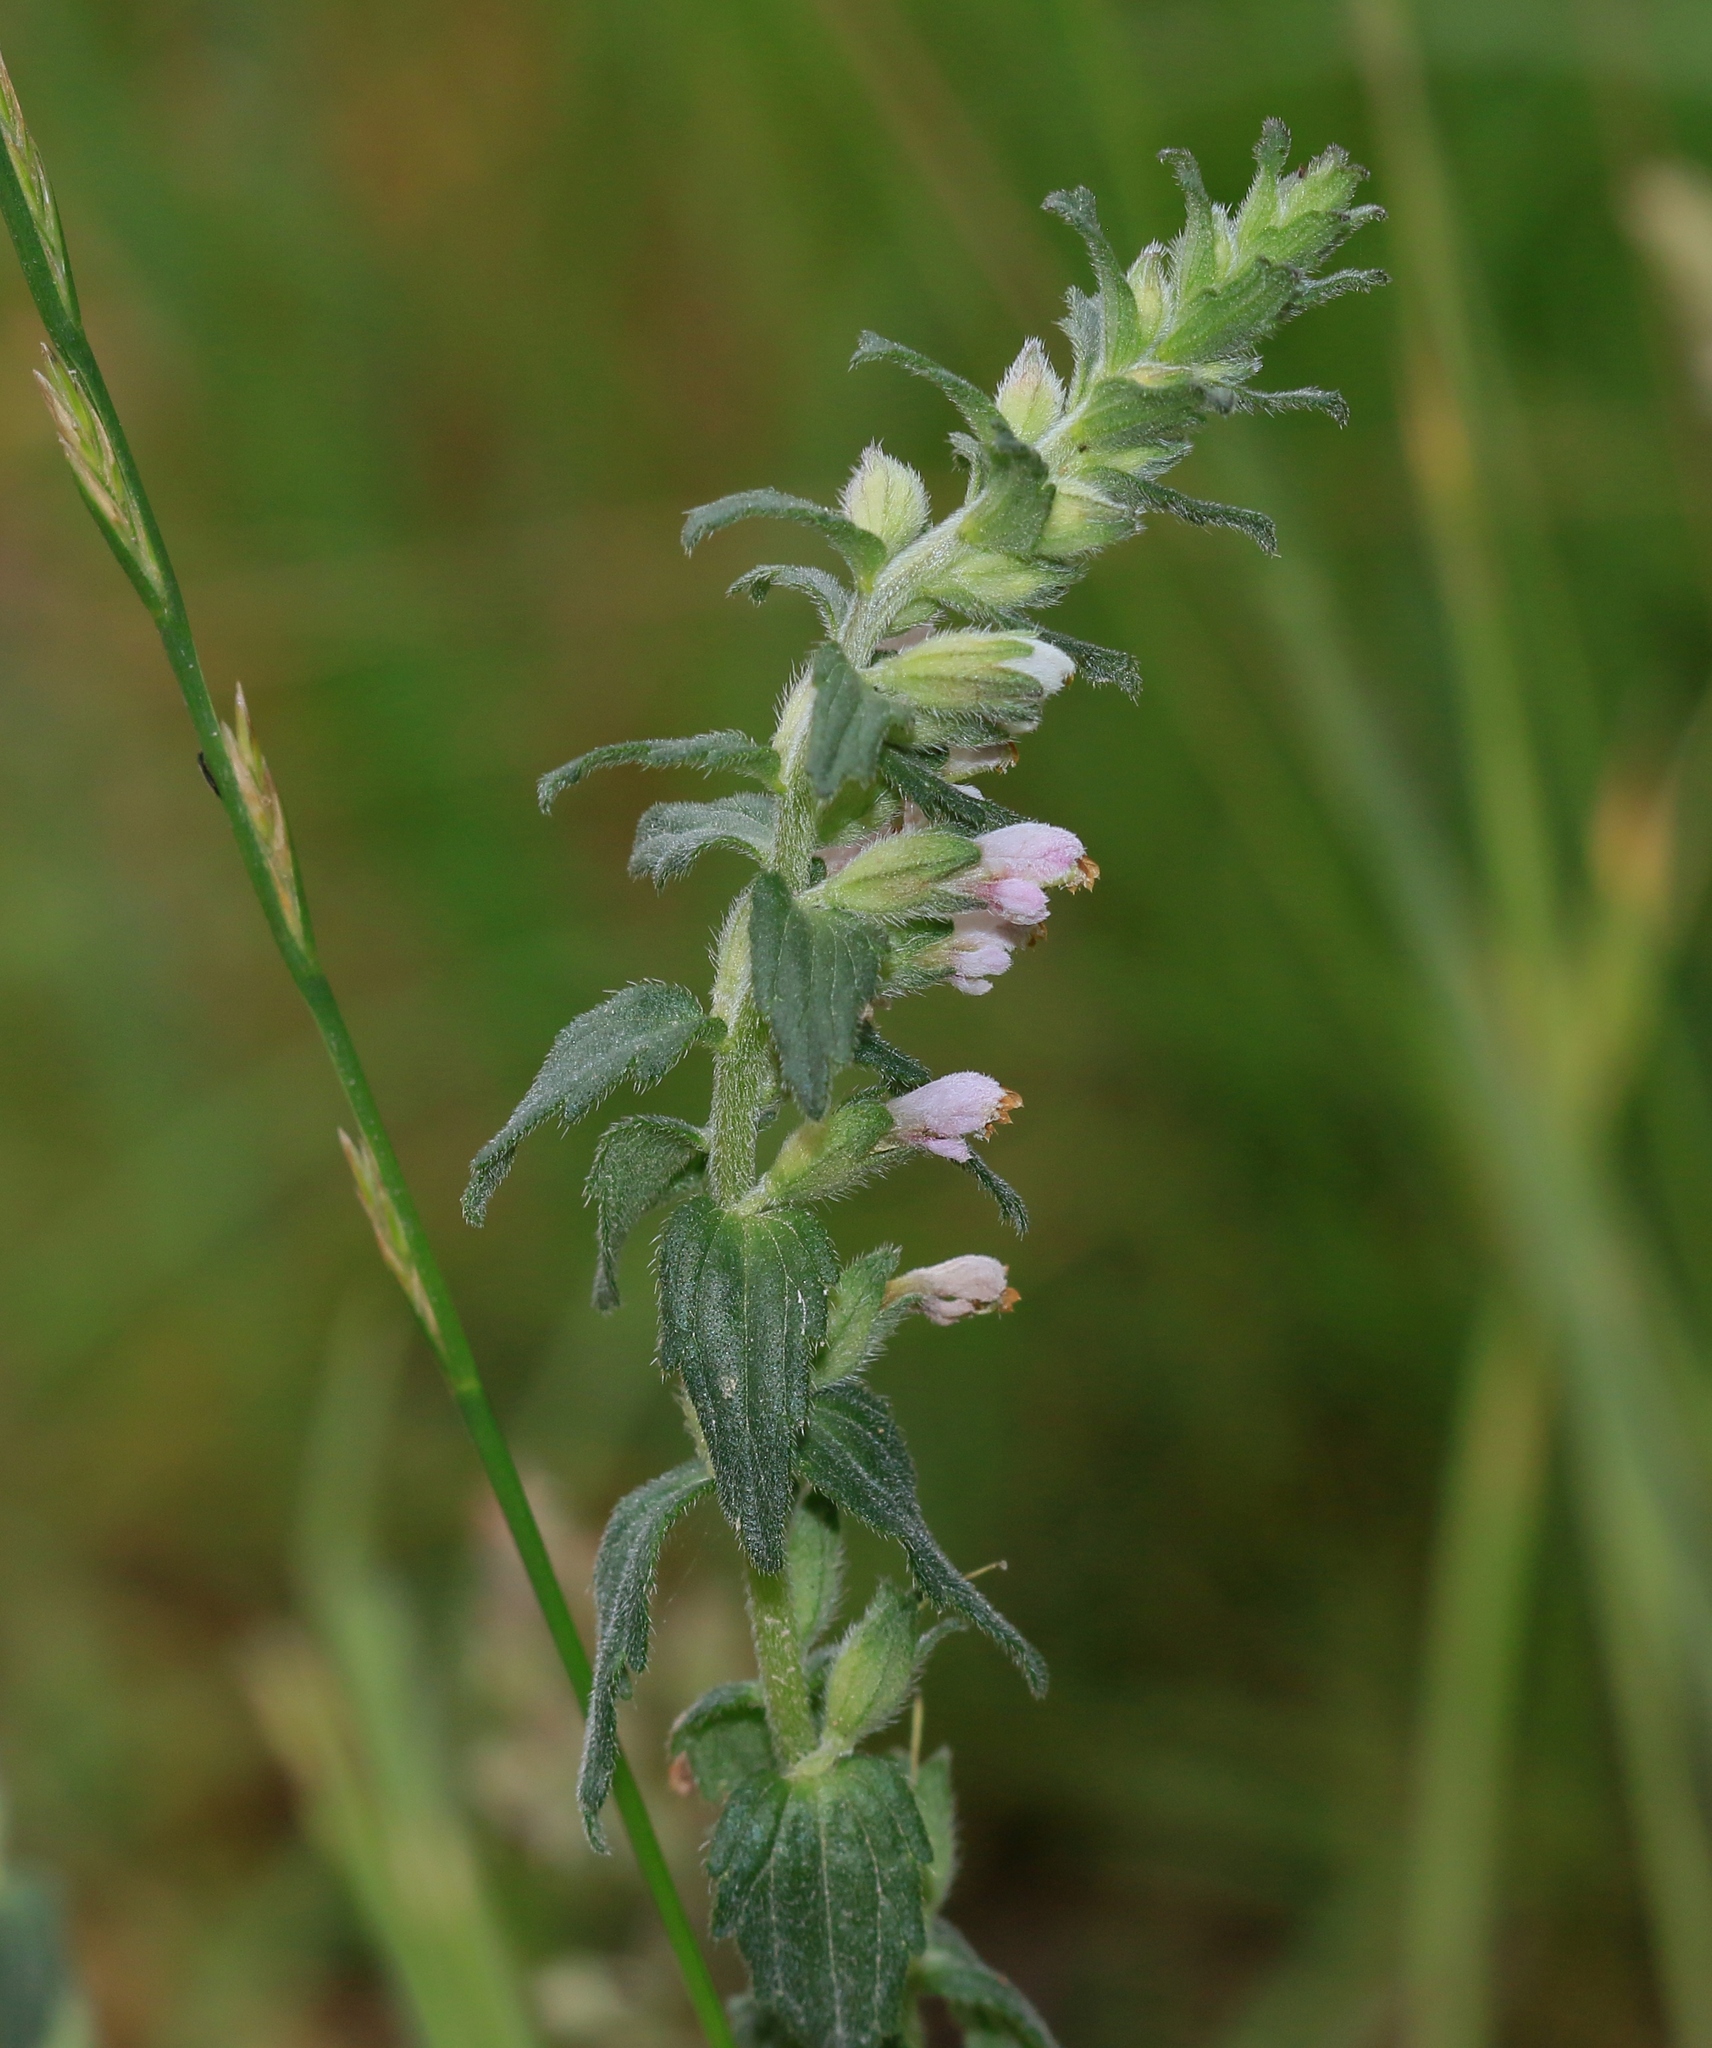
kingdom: Plantae
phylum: Tracheophyta
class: Magnoliopsida
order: Lamiales
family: Orobanchaceae
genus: Odontites
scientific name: Odontites vernus
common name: Red bartsia
